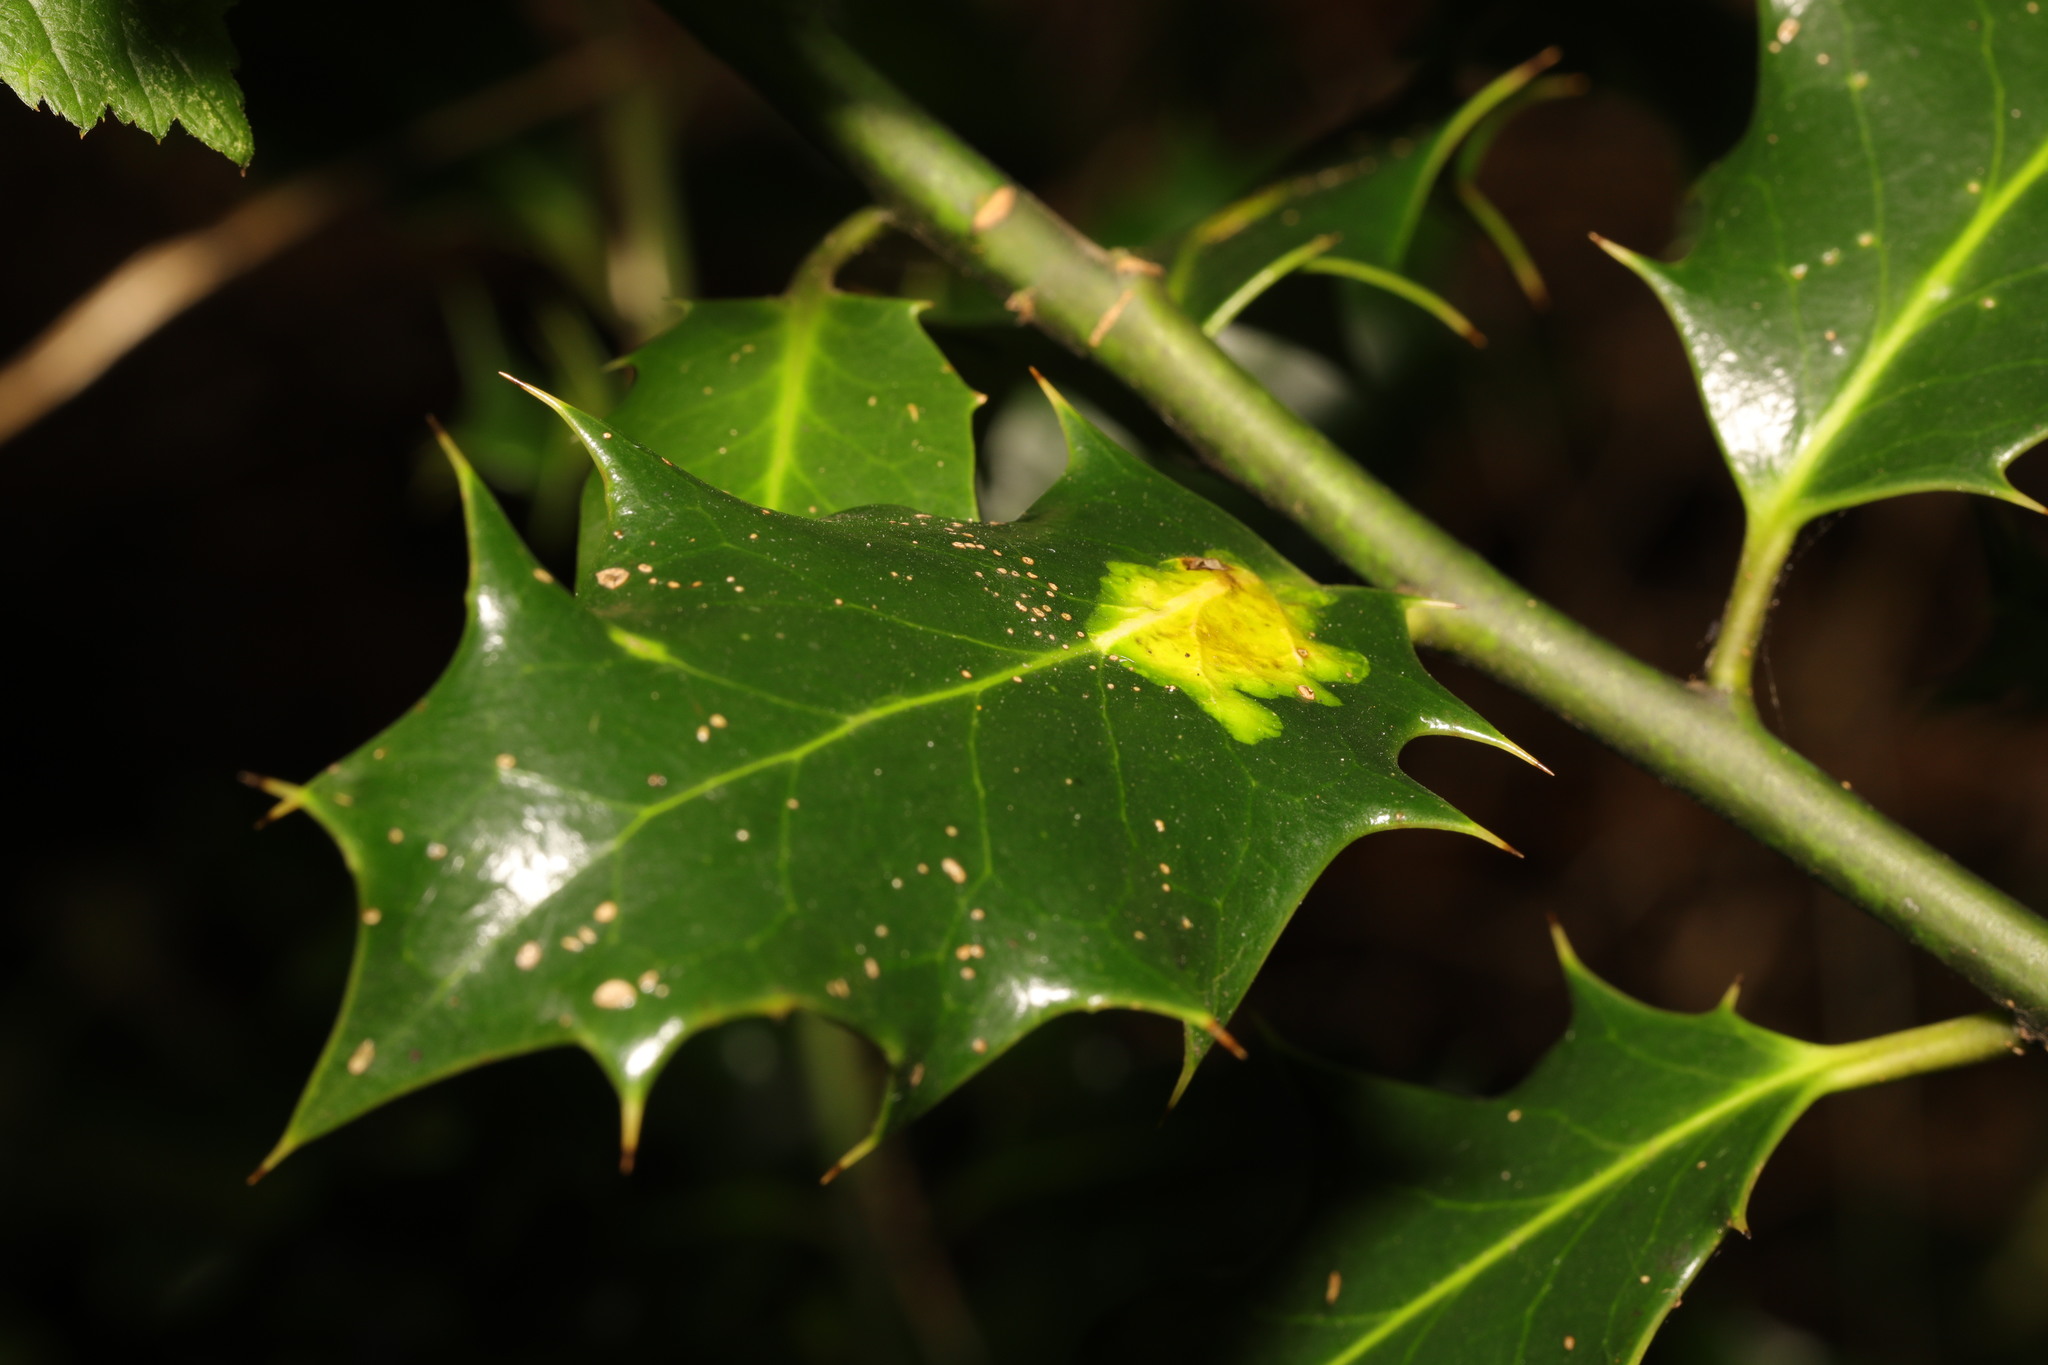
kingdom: Plantae
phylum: Tracheophyta
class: Magnoliopsida
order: Aquifoliales
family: Aquifoliaceae
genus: Ilex
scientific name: Ilex aquifolium
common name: English holly
